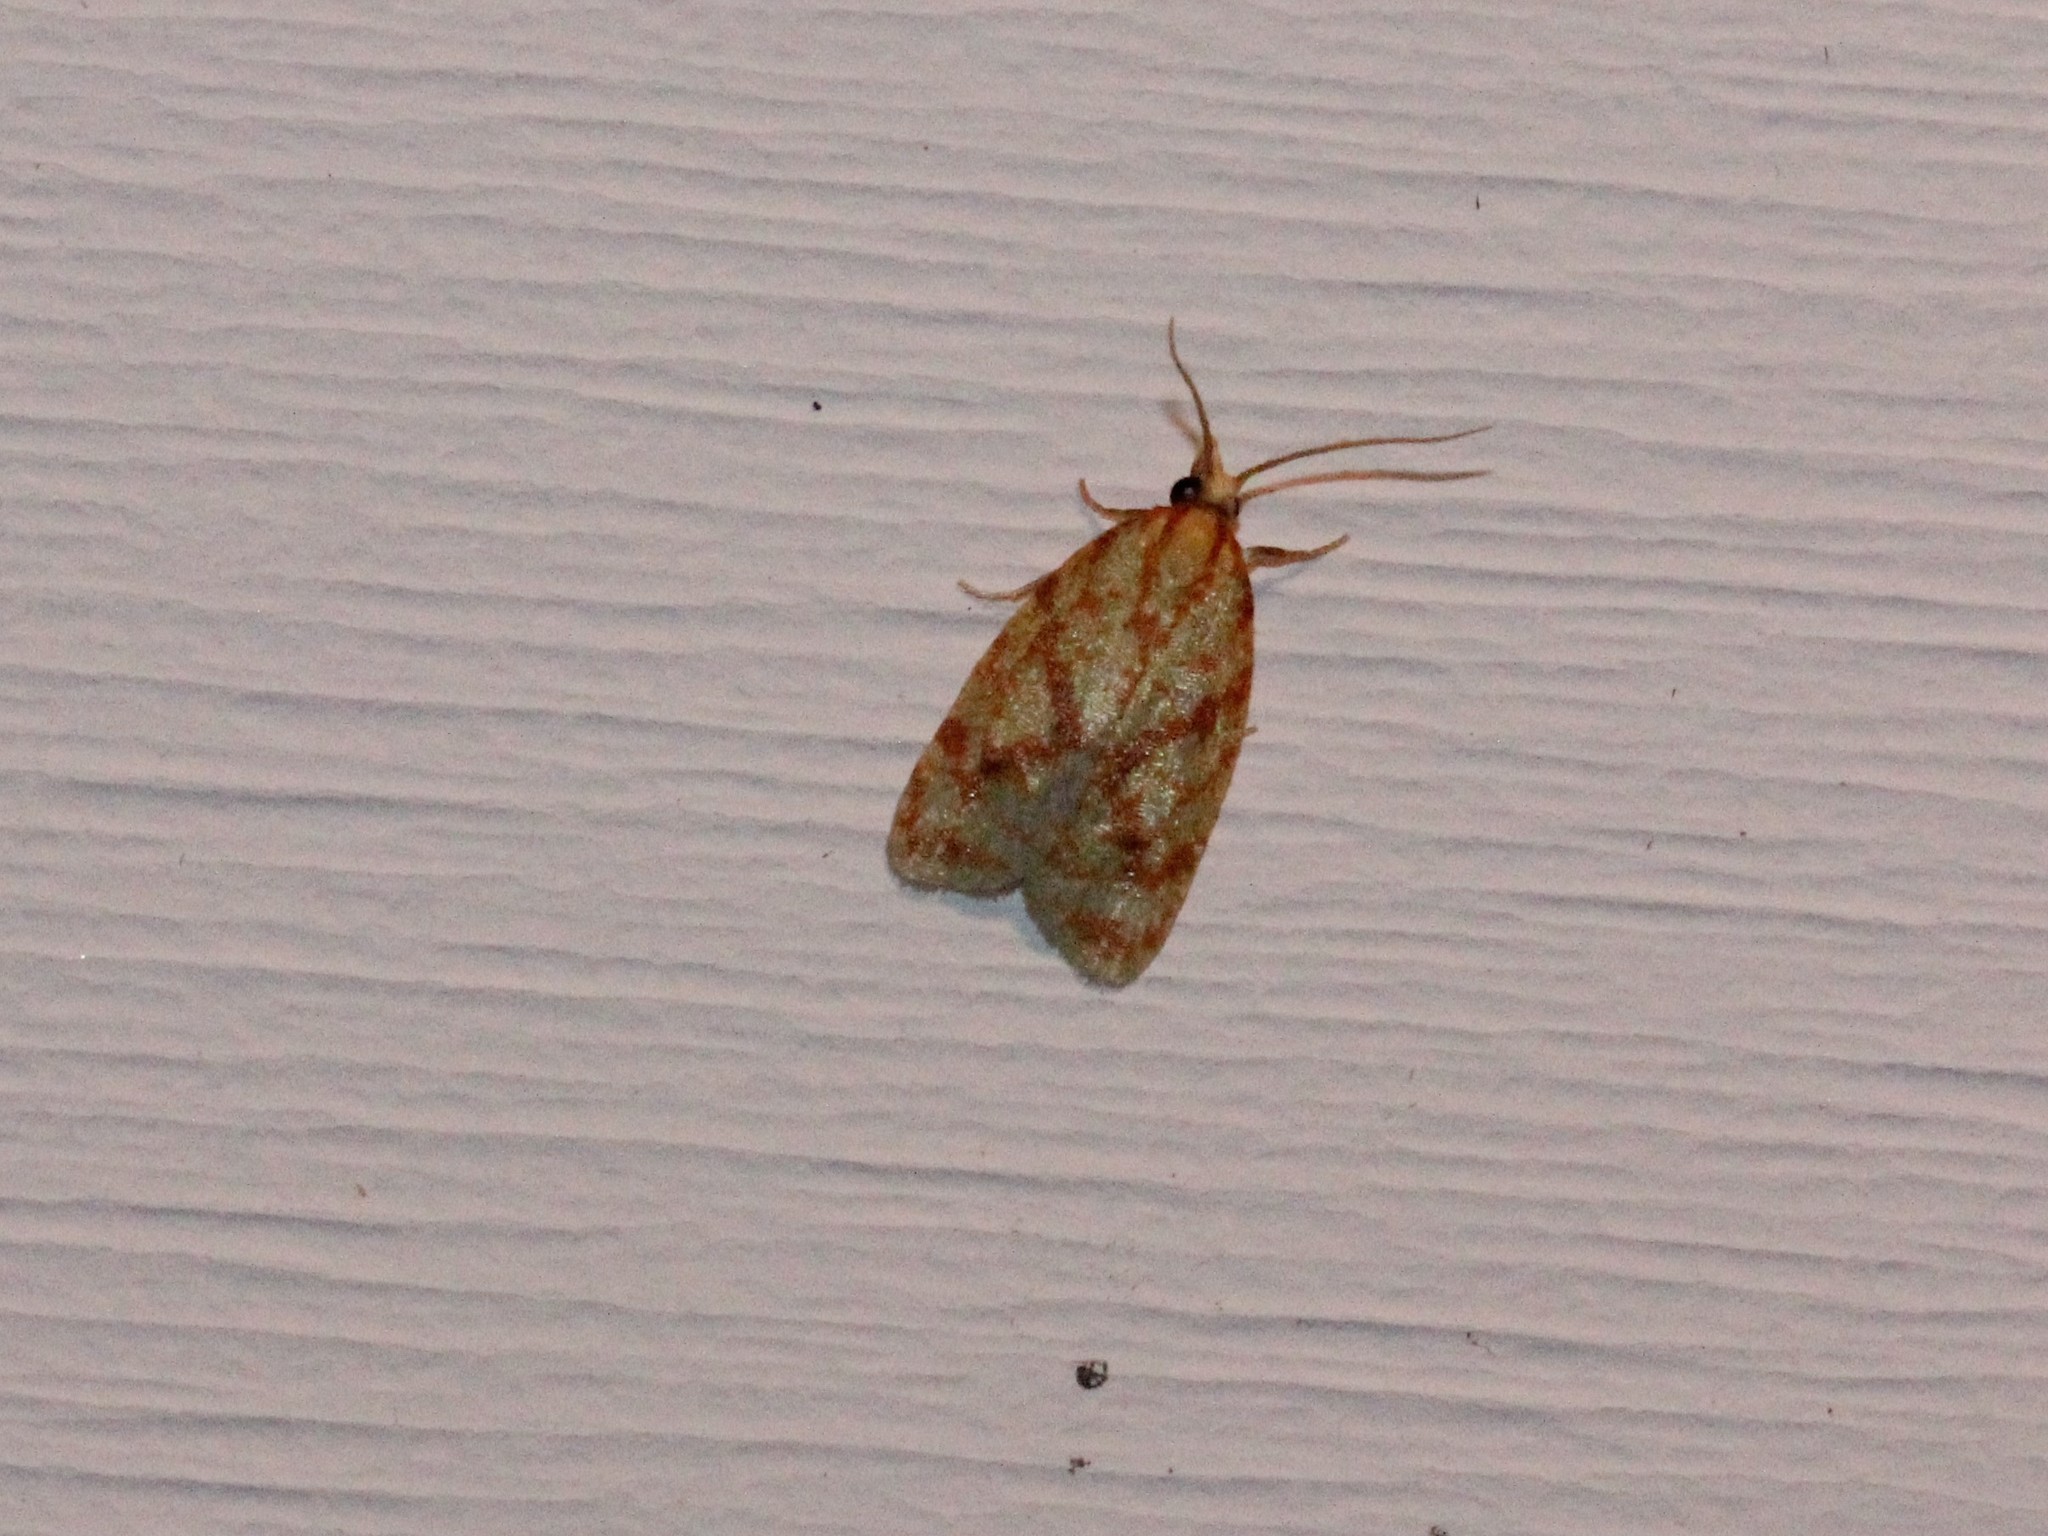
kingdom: Animalia
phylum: Arthropoda
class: Insecta
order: Lepidoptera
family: Tortricidae
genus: Sparganothis
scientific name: Sparganothis sulfureana
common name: Sparganothis fruitworm moth
